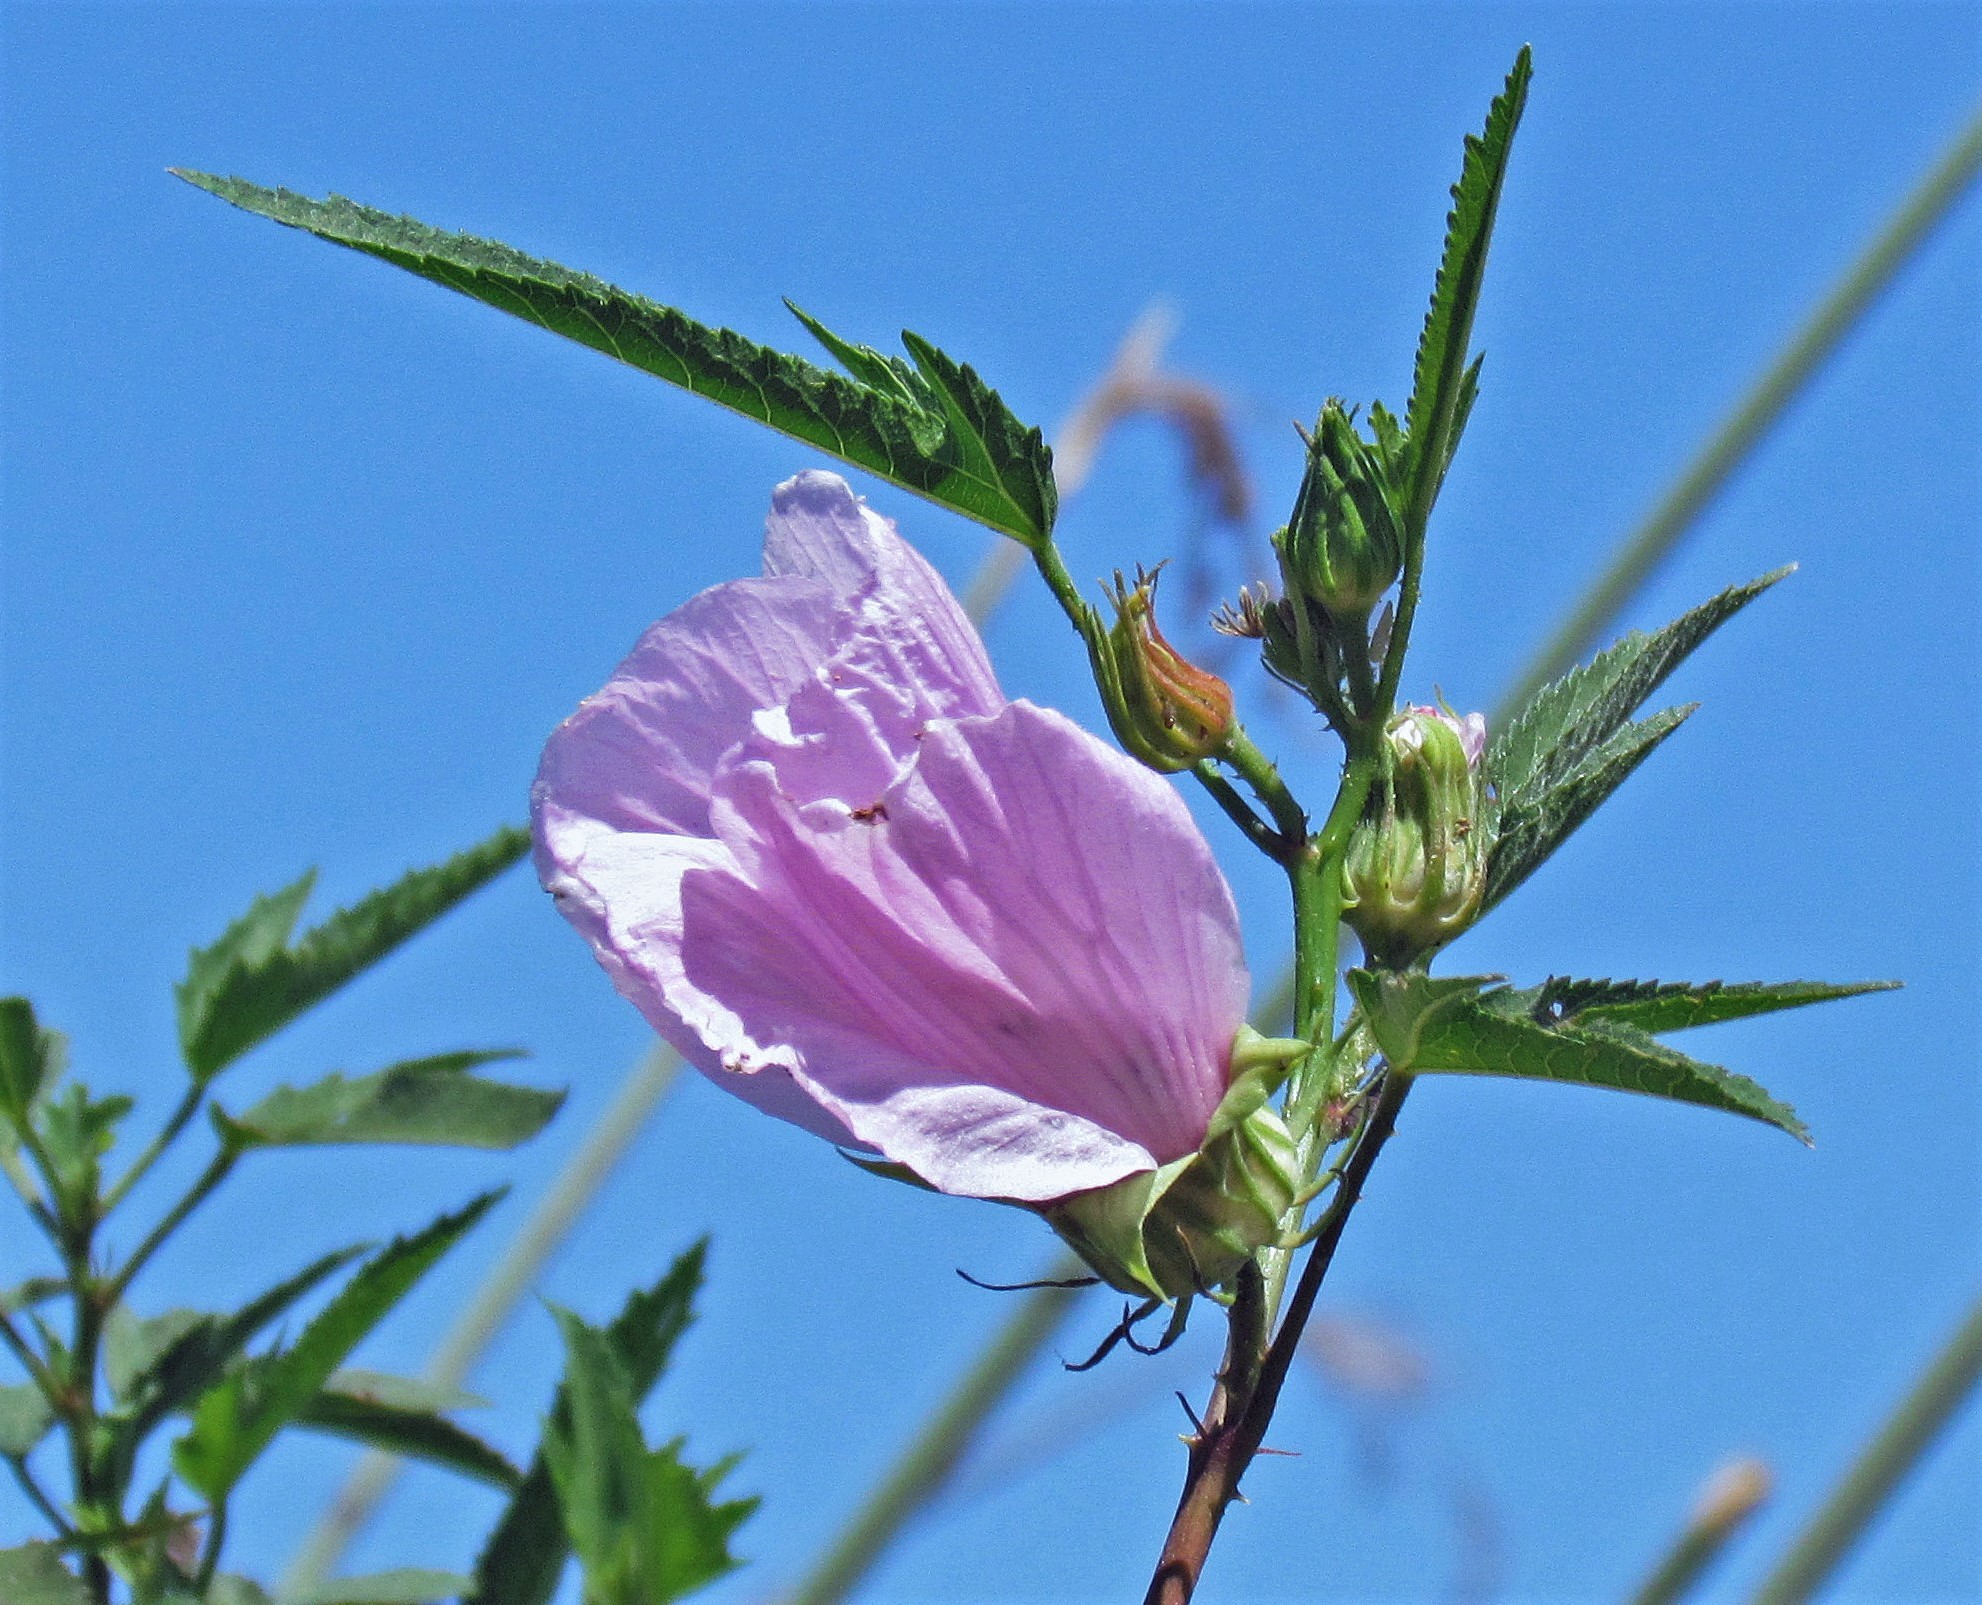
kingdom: Plantae
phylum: Tracheophyta
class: Magnoliopsida
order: Malvales
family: Malvaceae
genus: Hibiscus
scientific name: Hibiscus striatus
